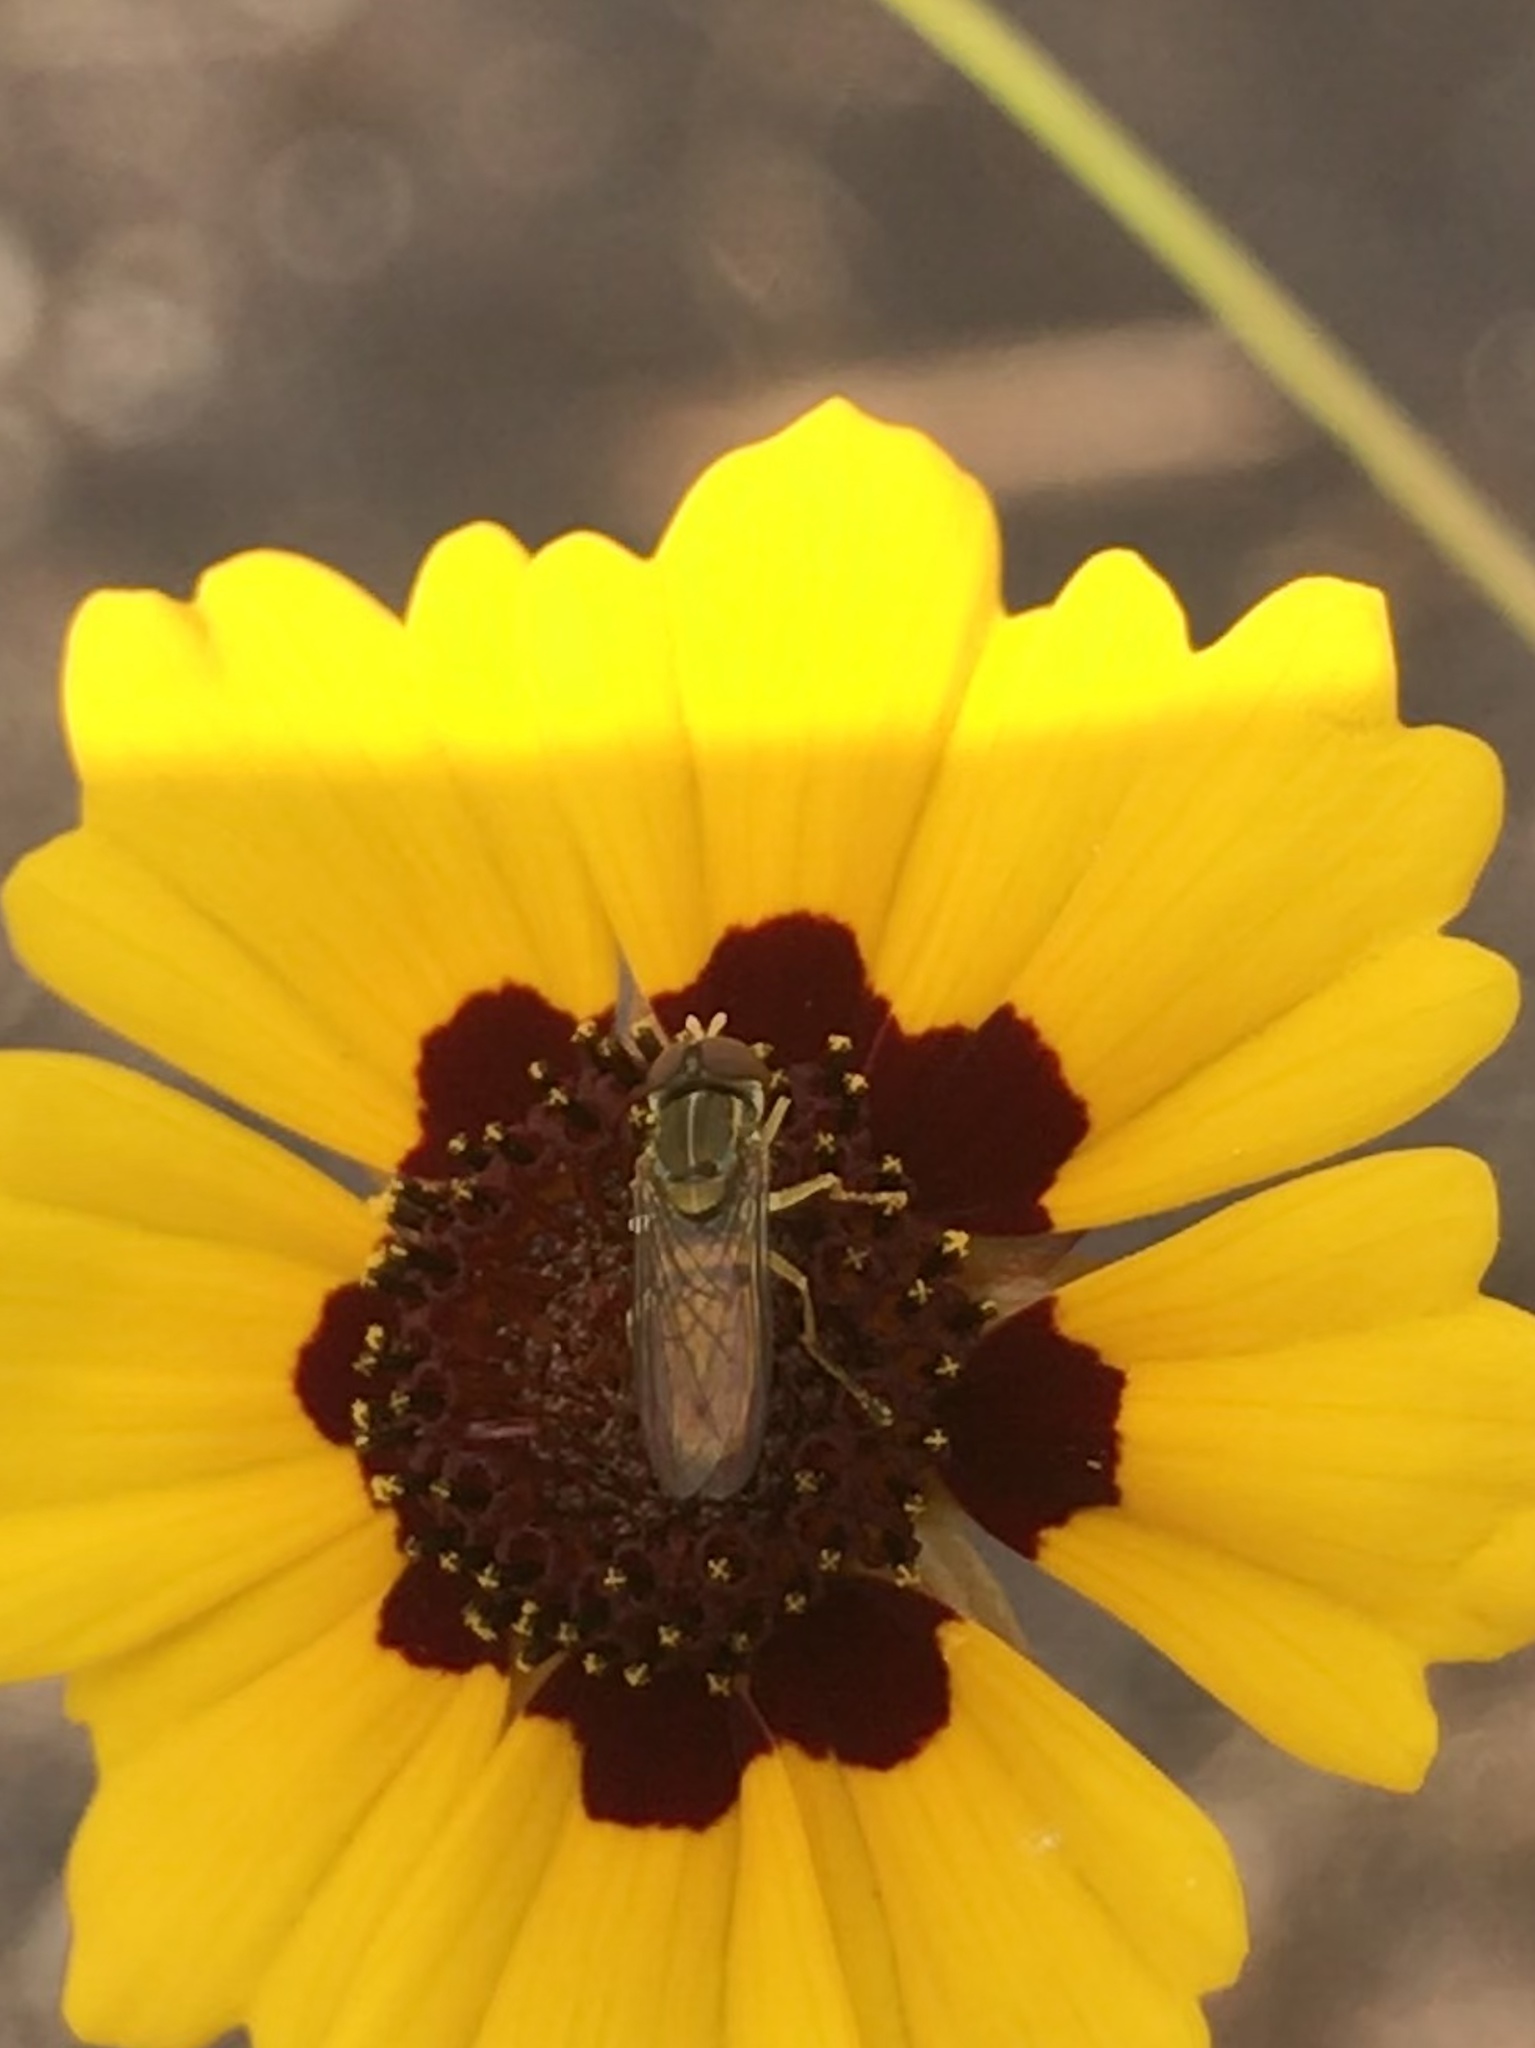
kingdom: Animalia
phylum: Arthropoda
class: Insecta
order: Diptera
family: Syrphidae
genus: Toxomerus
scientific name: Toxomerus marginatus
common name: Syrphid fly
